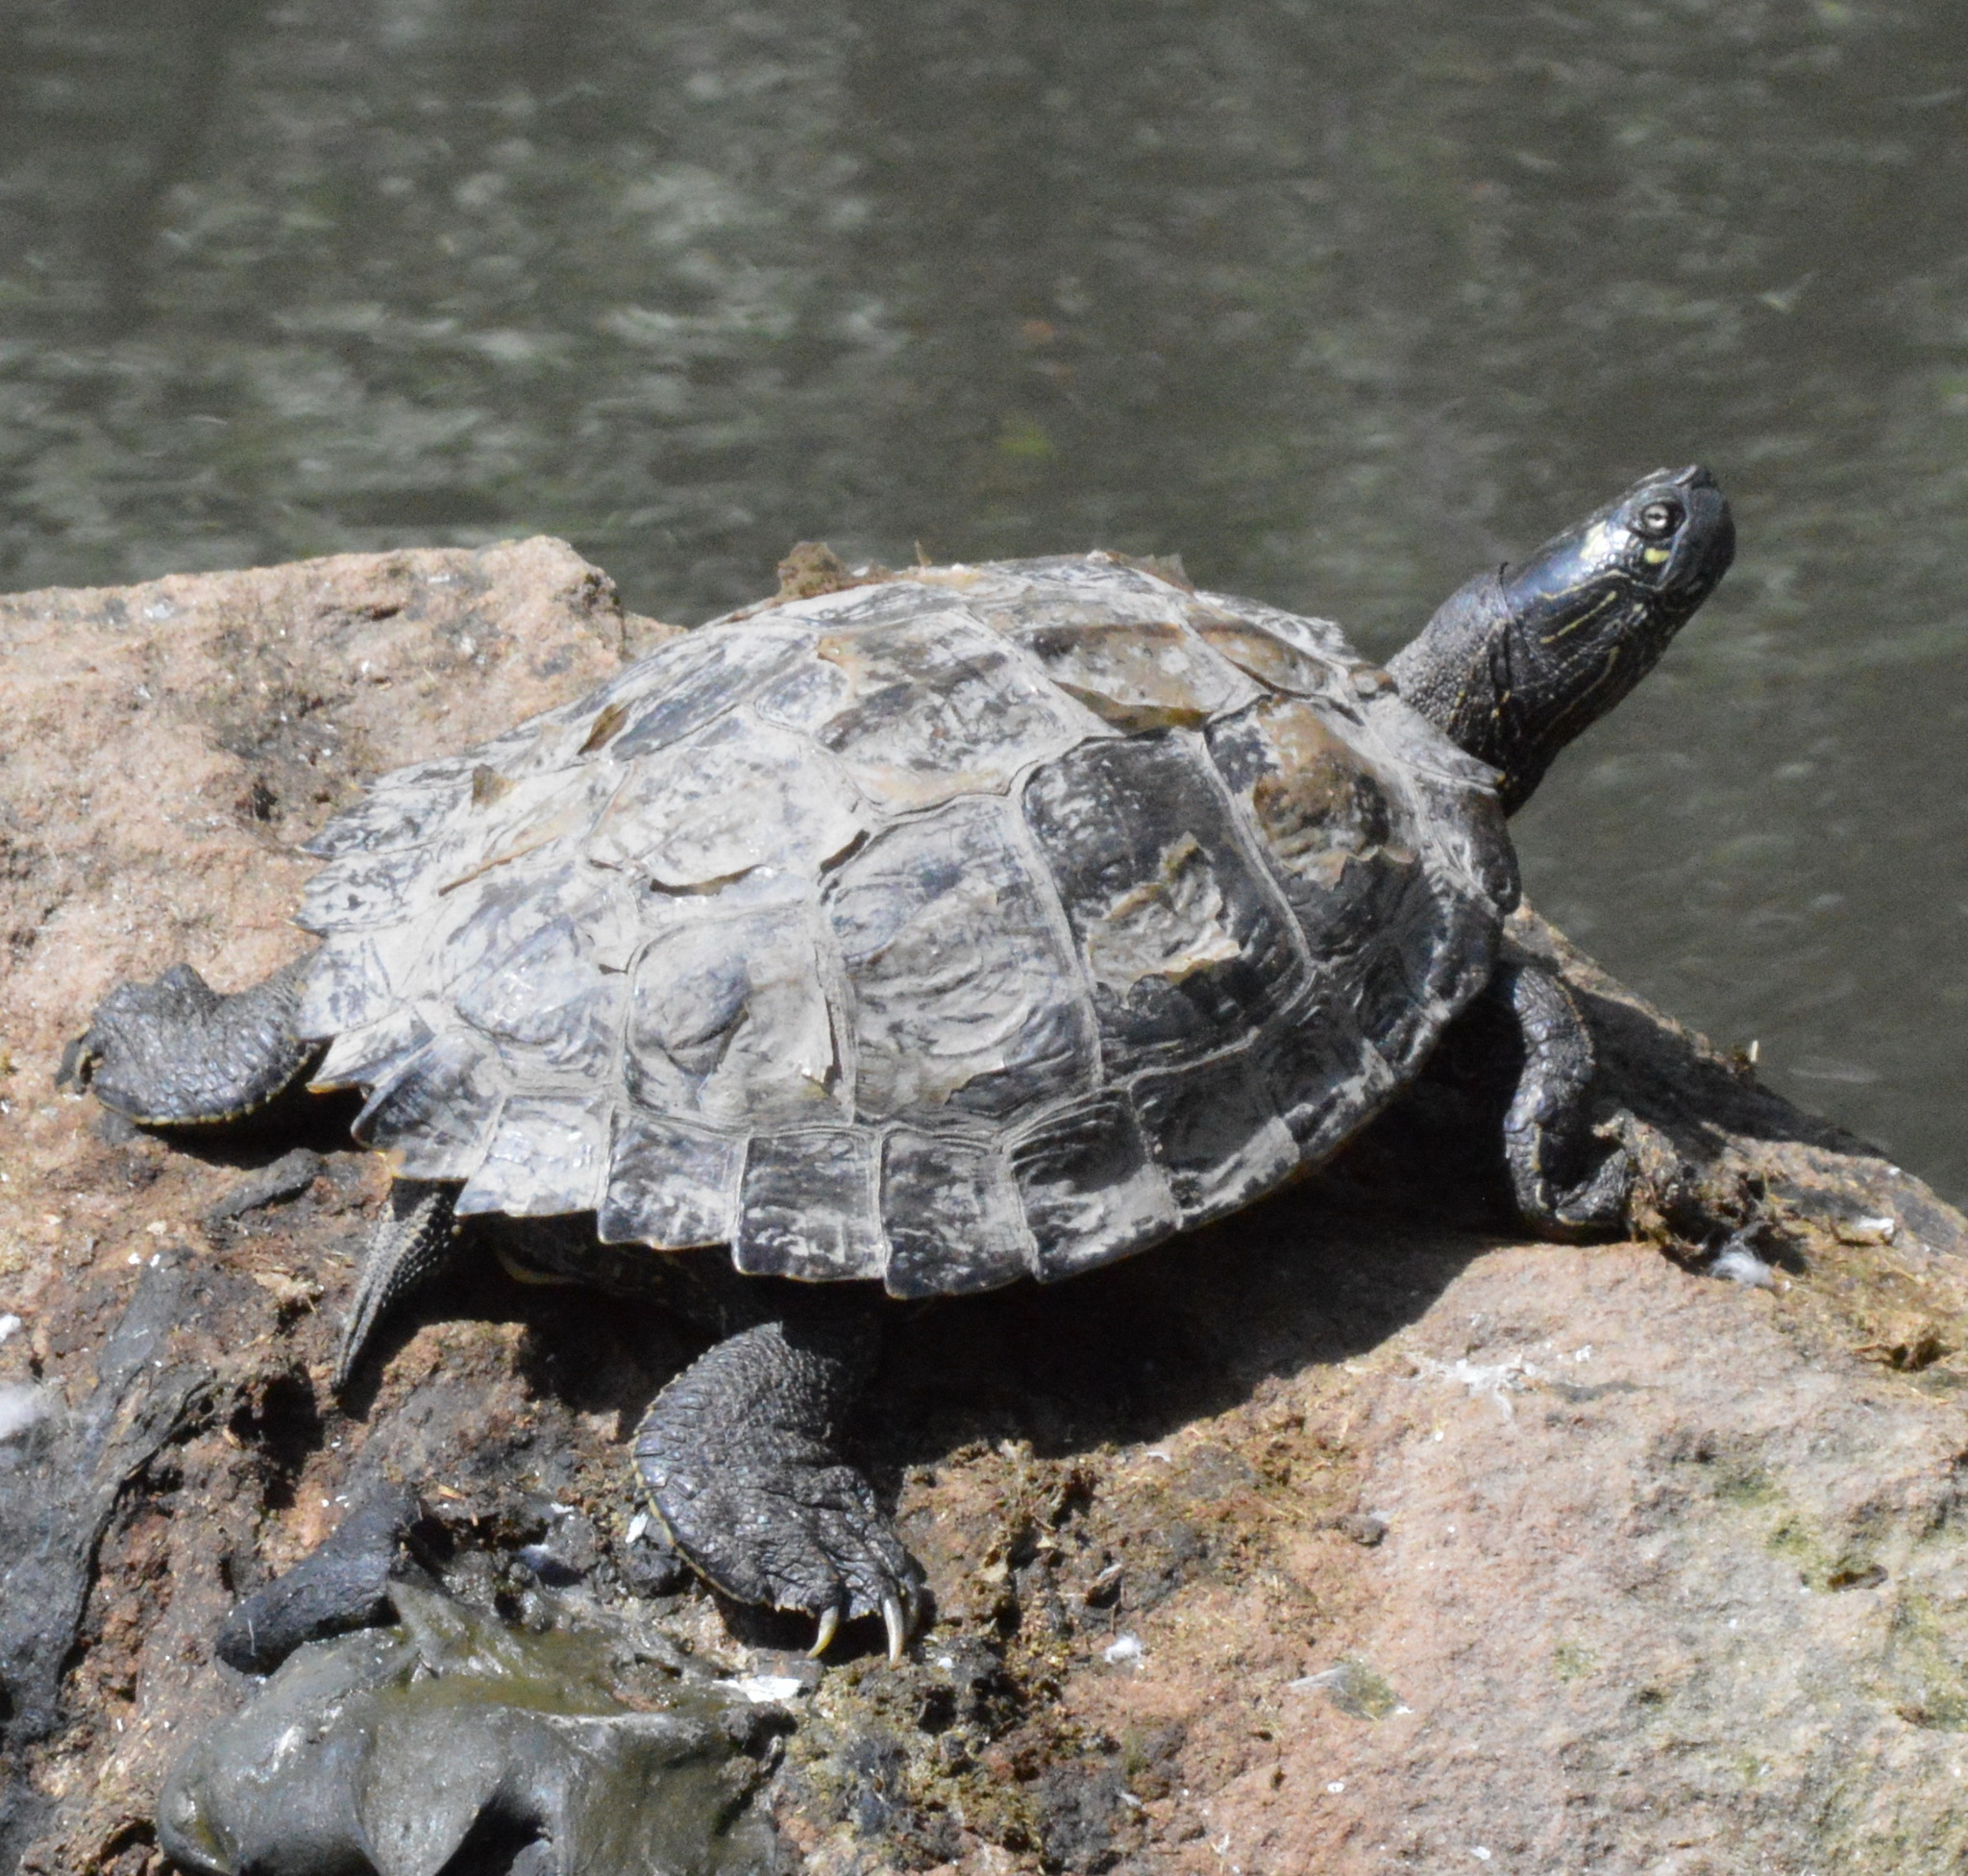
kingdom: Animalia
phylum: Chordata
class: Testudines
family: Emydidae
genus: Graptemys
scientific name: Graptemys ouachitensis
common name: Ouachita map turtle
